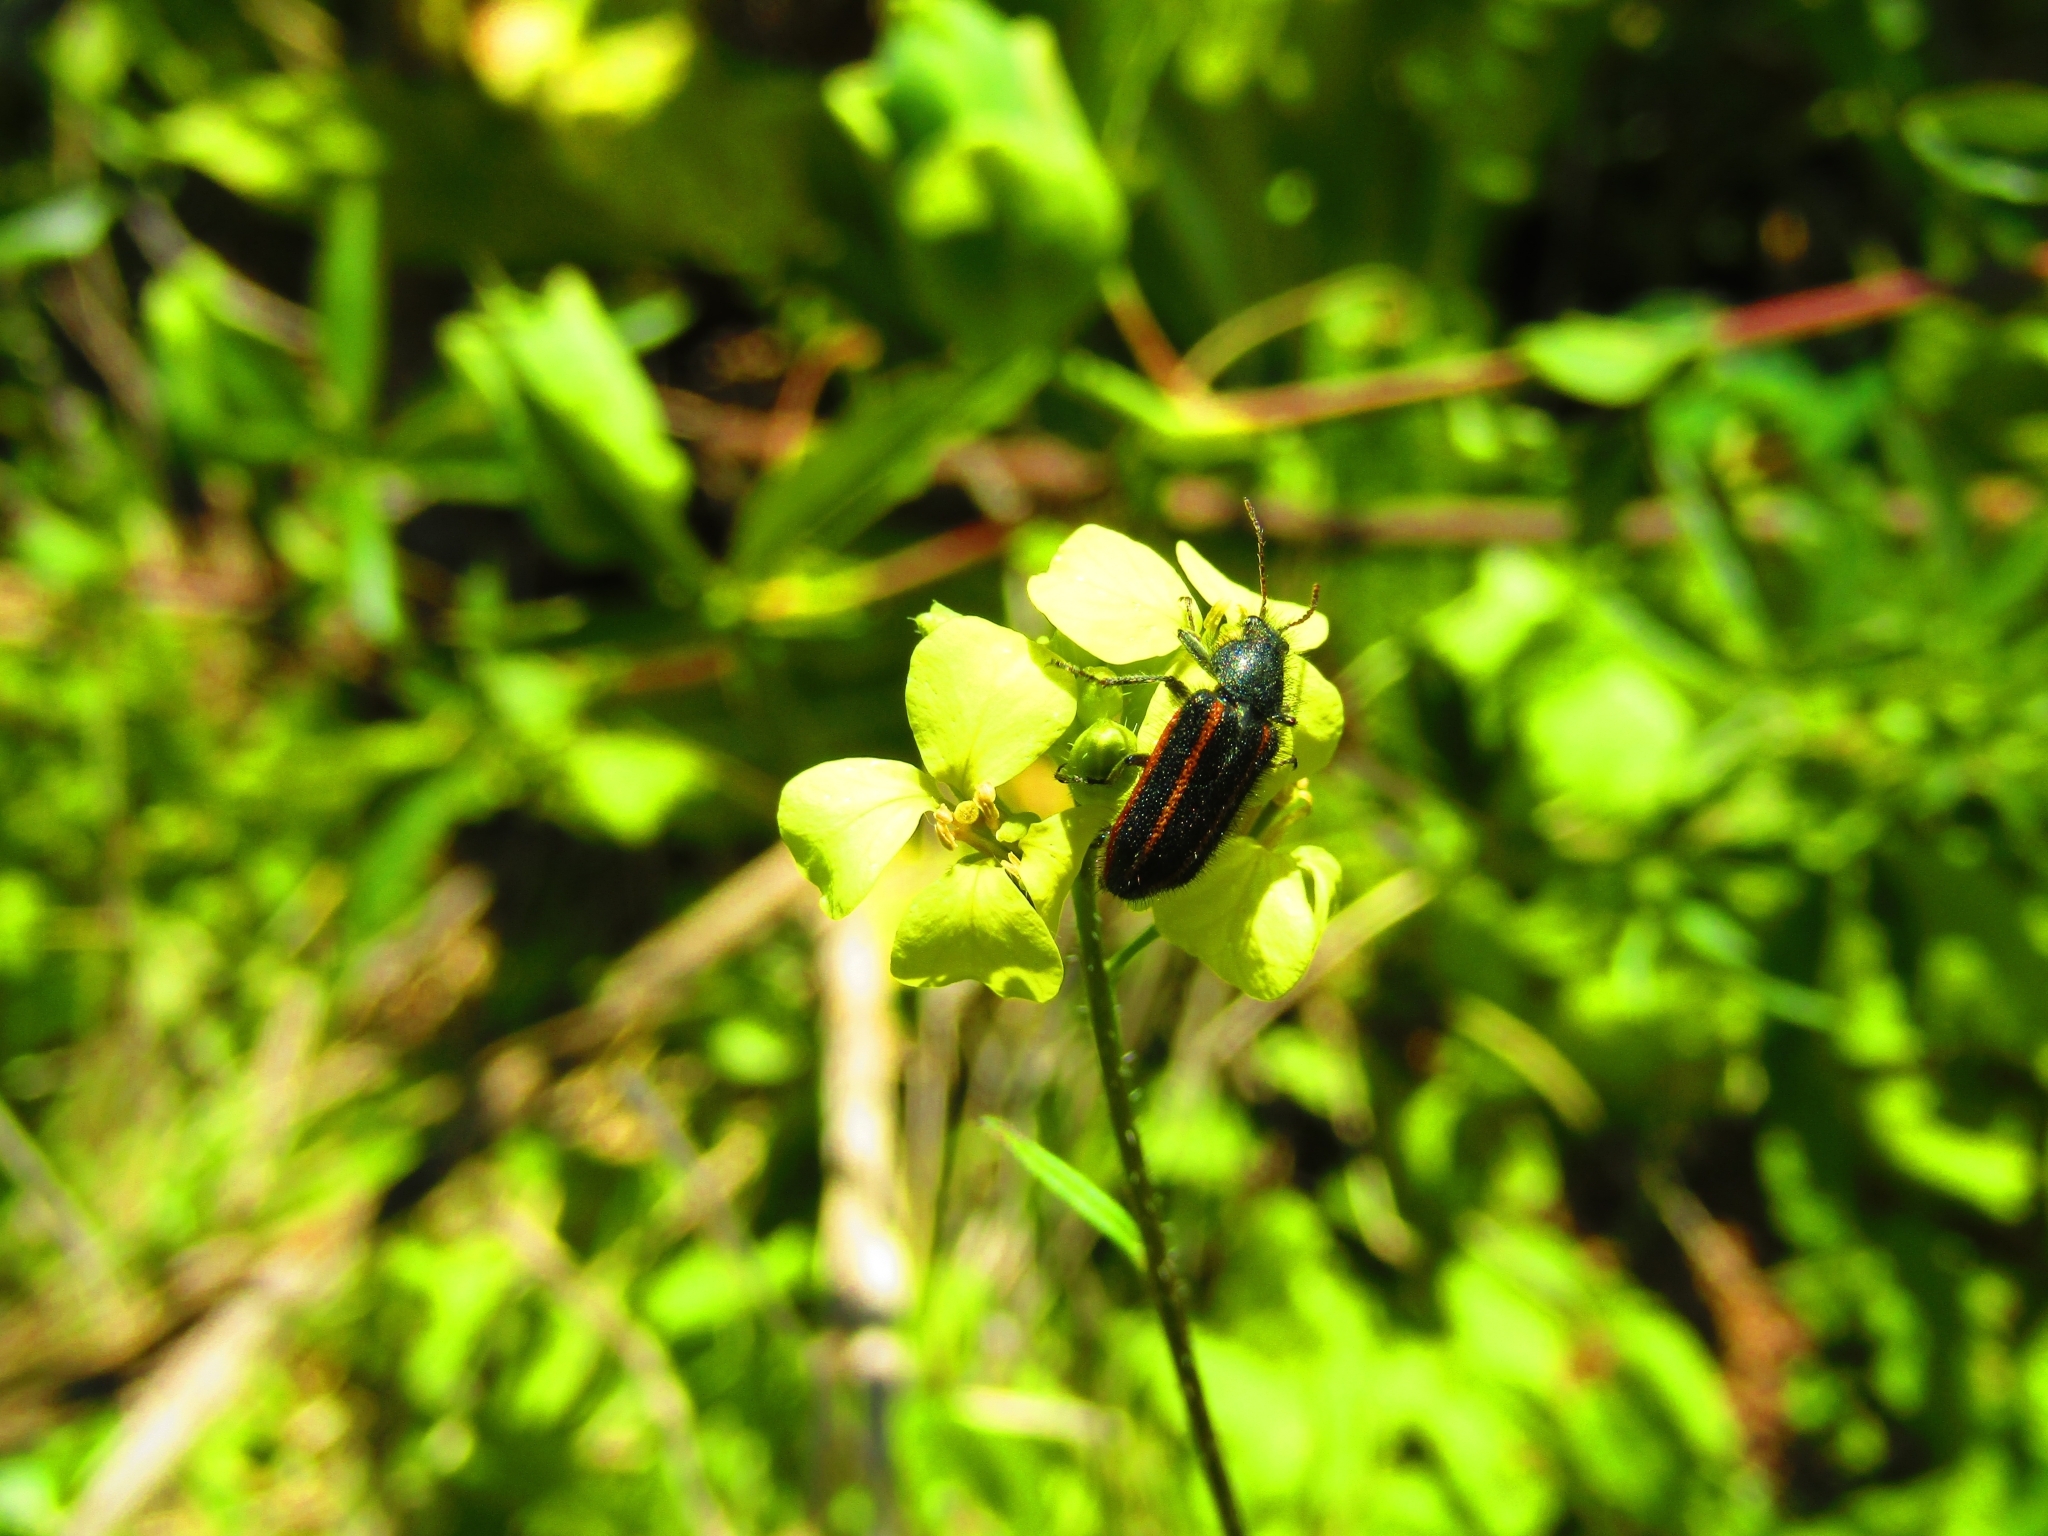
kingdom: Animalia
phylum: Arthropoda
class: Insecta
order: Coleoptera
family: Melyridae
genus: Astylus
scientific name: Astylus
